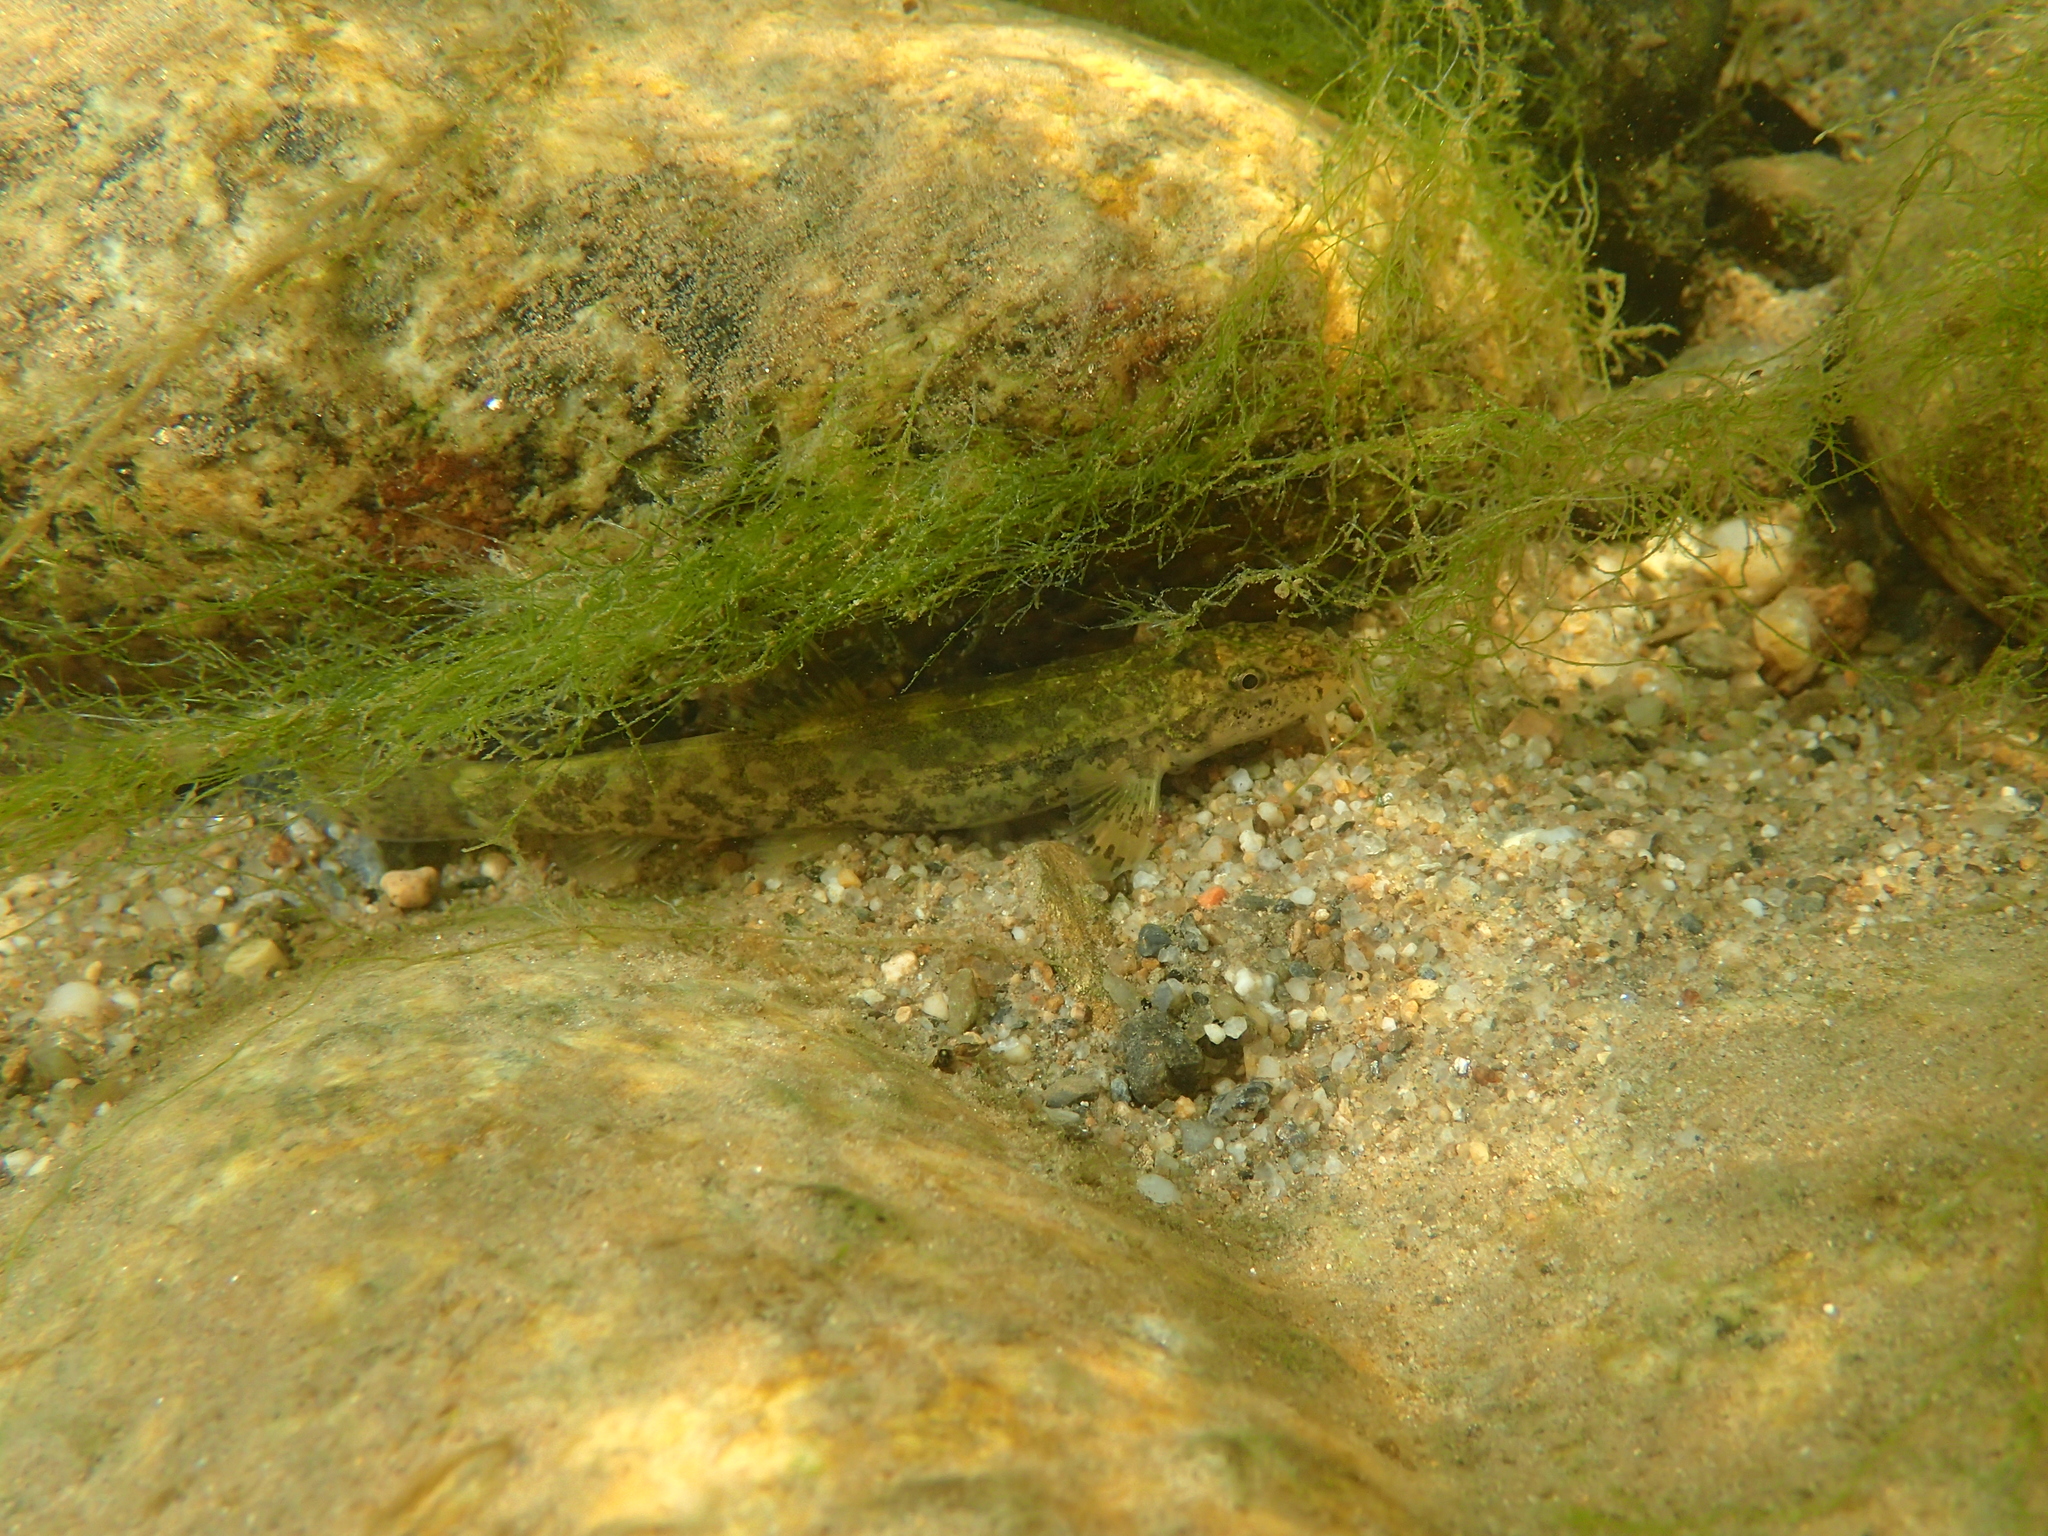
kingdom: Animalia
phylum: Chordata
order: Cypriniformes
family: Nemacheilidae
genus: Barbatula
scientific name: Barbatula barbatula
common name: Stone loach
